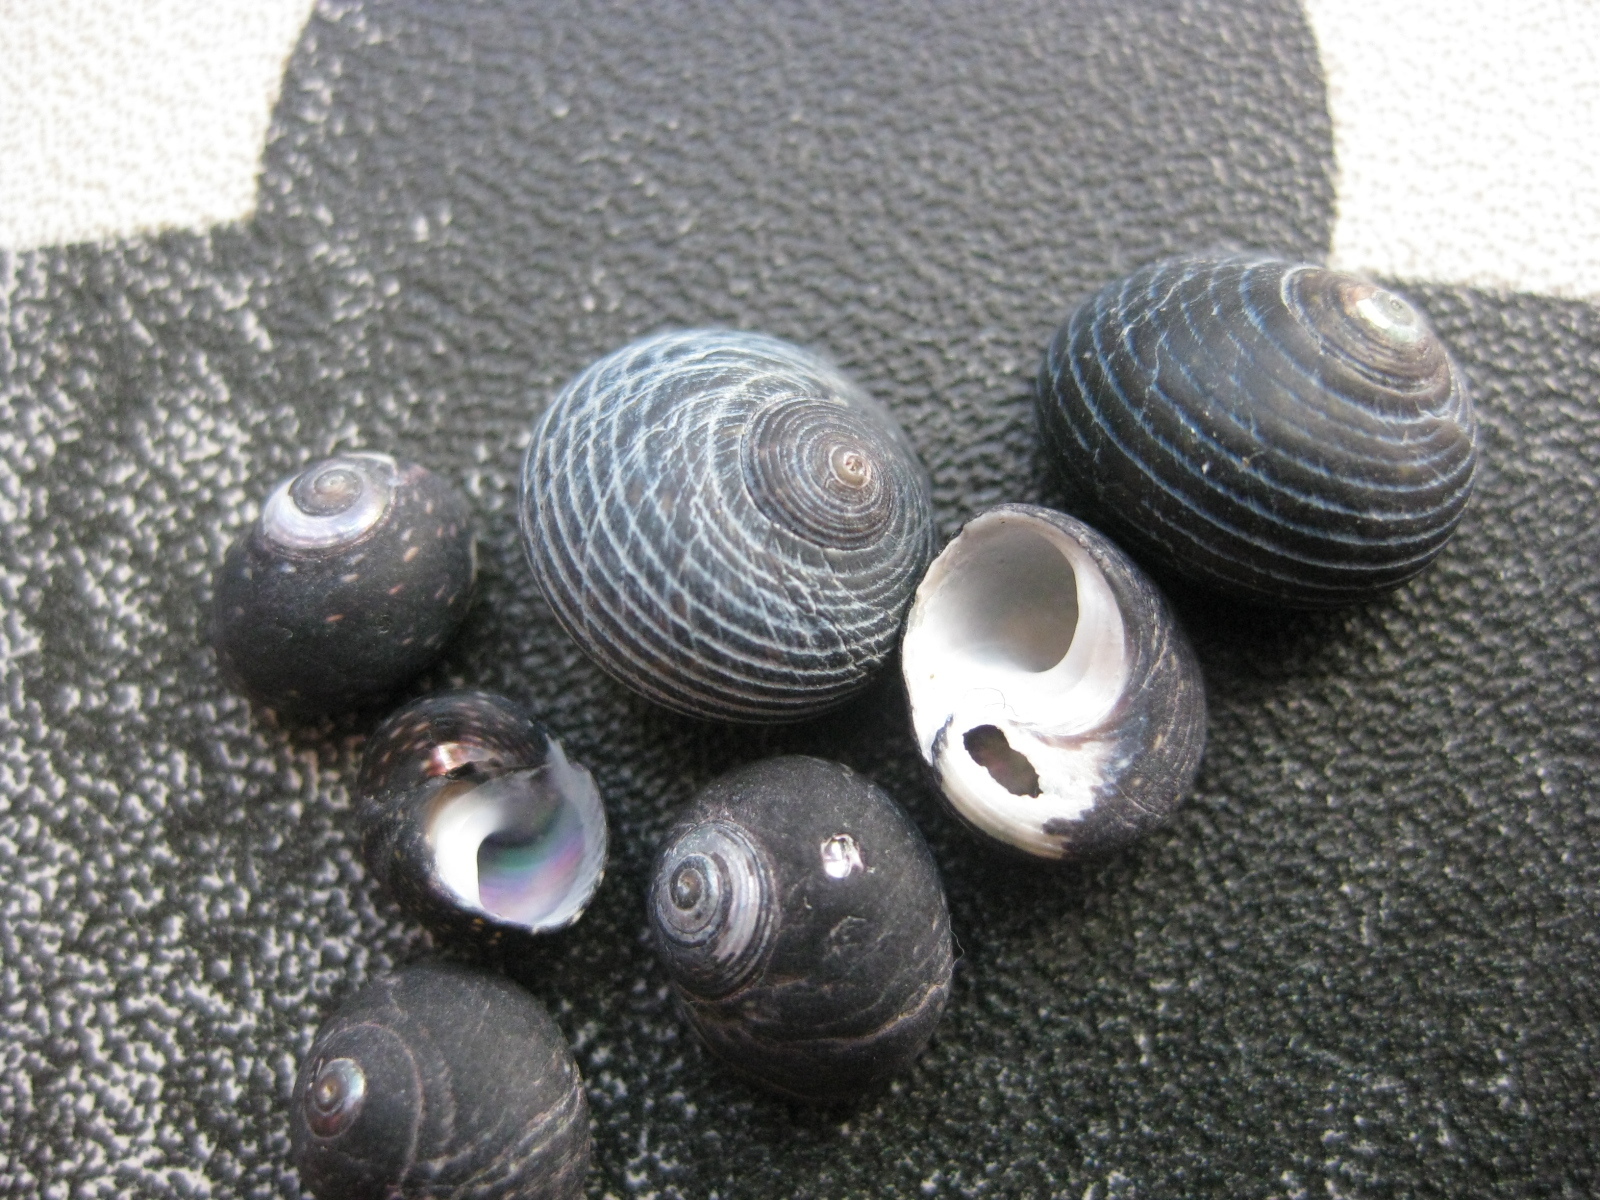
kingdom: Animalia
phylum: Mollusca
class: Gastropoda
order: Trochida
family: Trochidae
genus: Diloma
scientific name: Diloma nigerrimum
